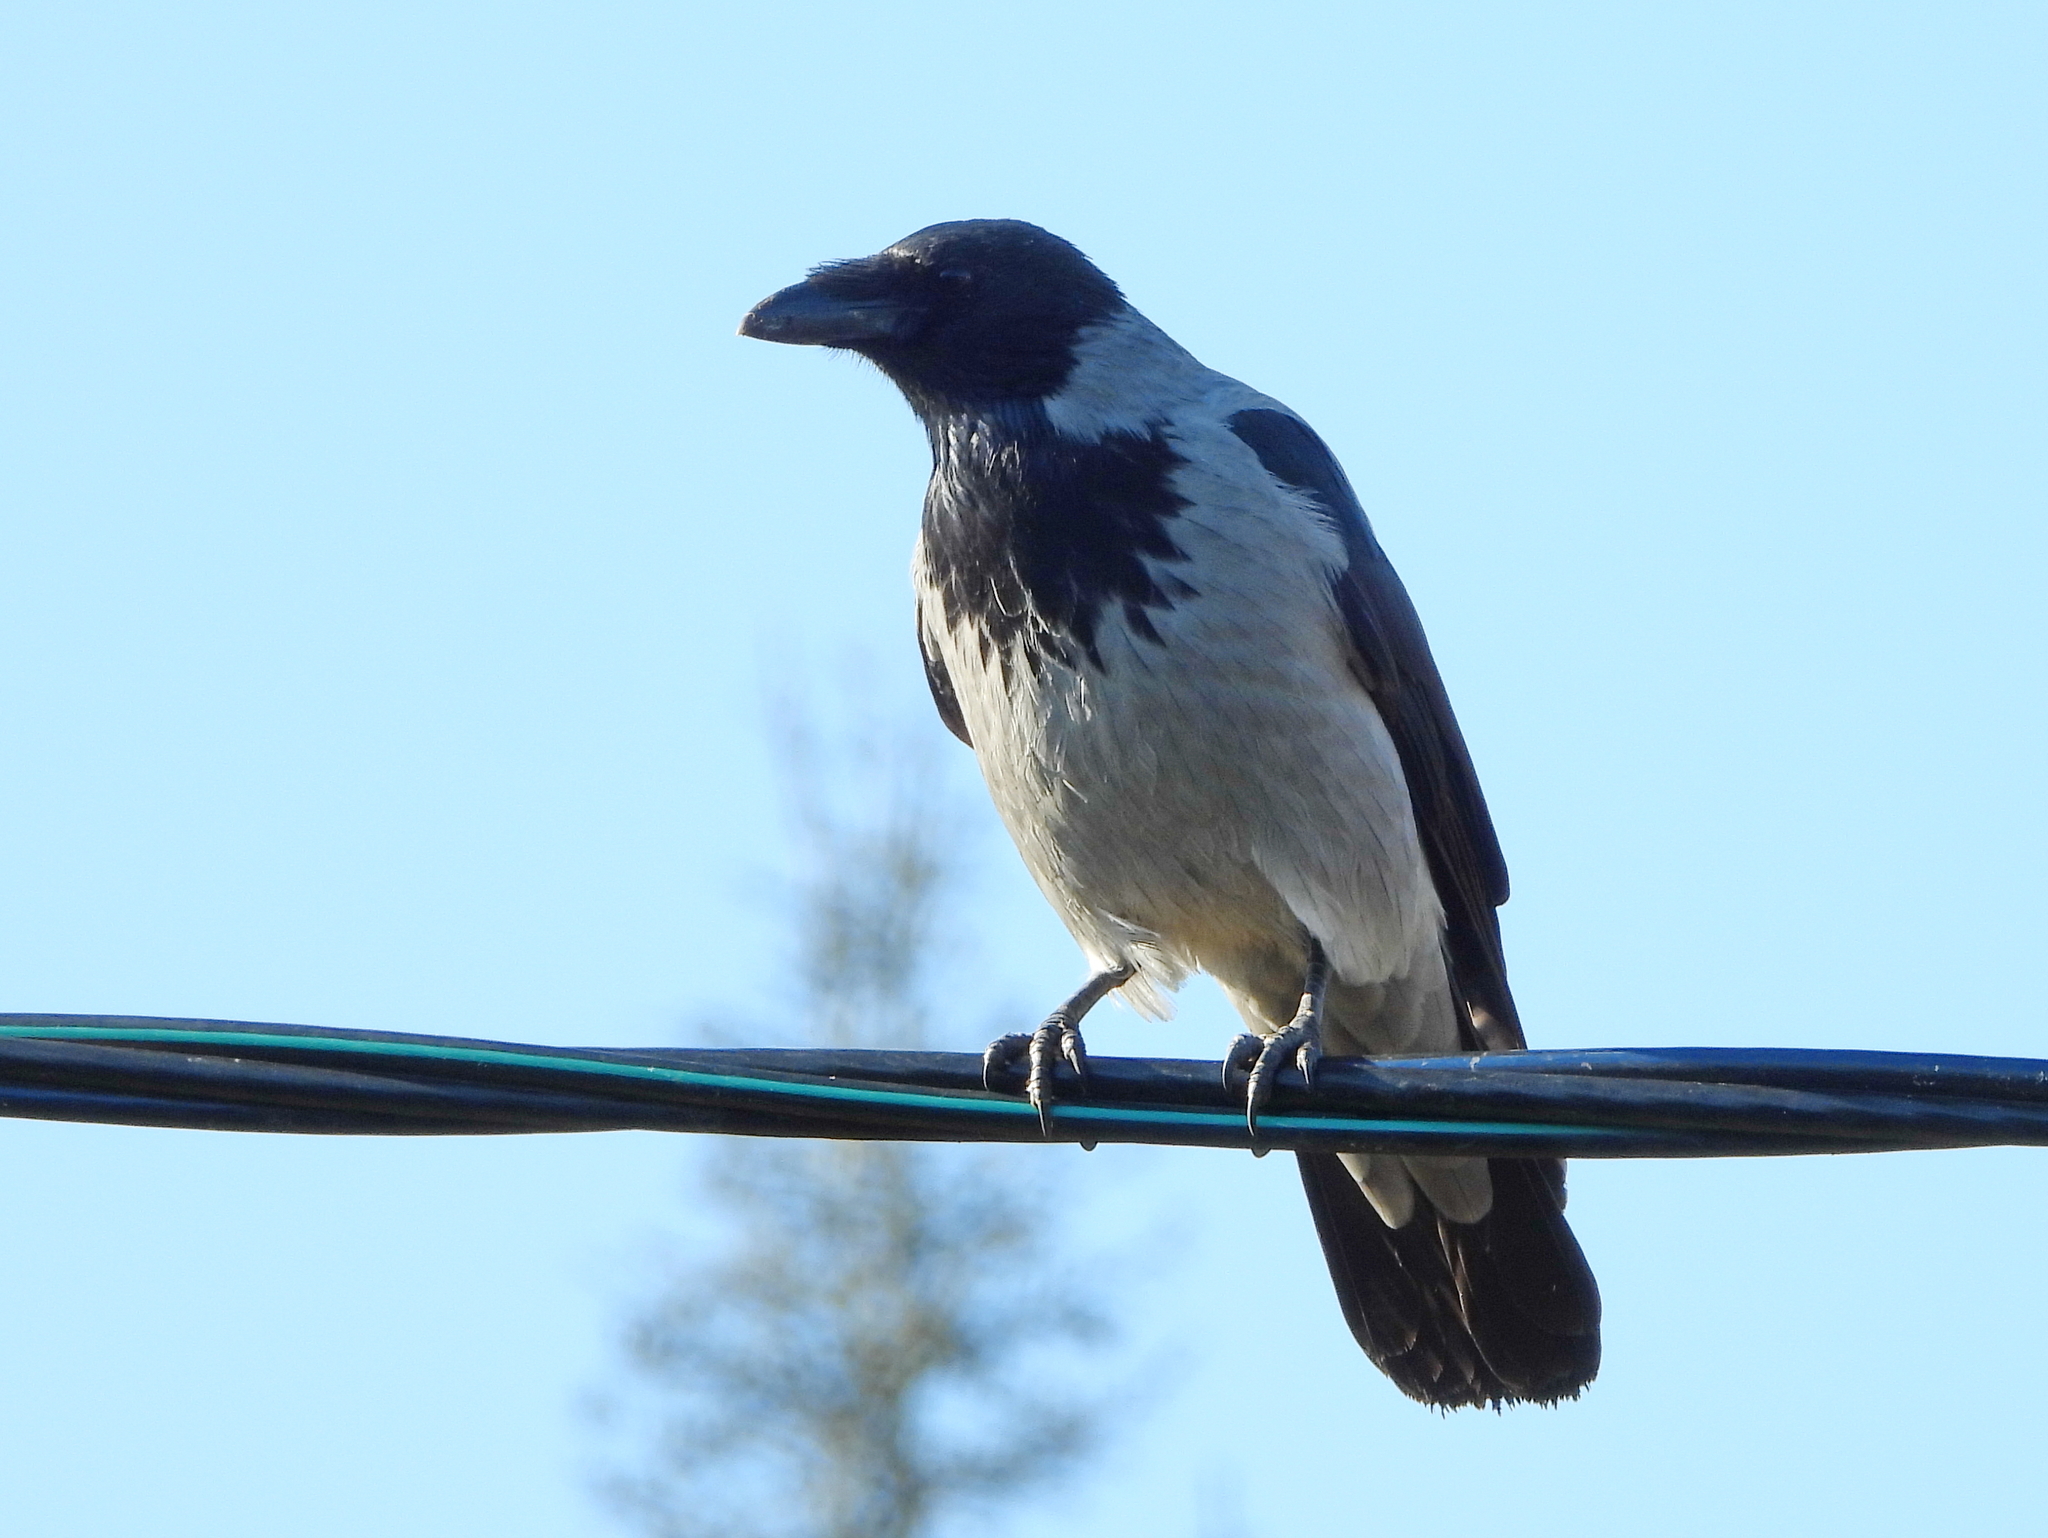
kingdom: Animalia
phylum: Chordata
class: Aves
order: Passeriformes
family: Corvidae
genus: Corvus
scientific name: Corvus cornix
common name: Hooded crow
